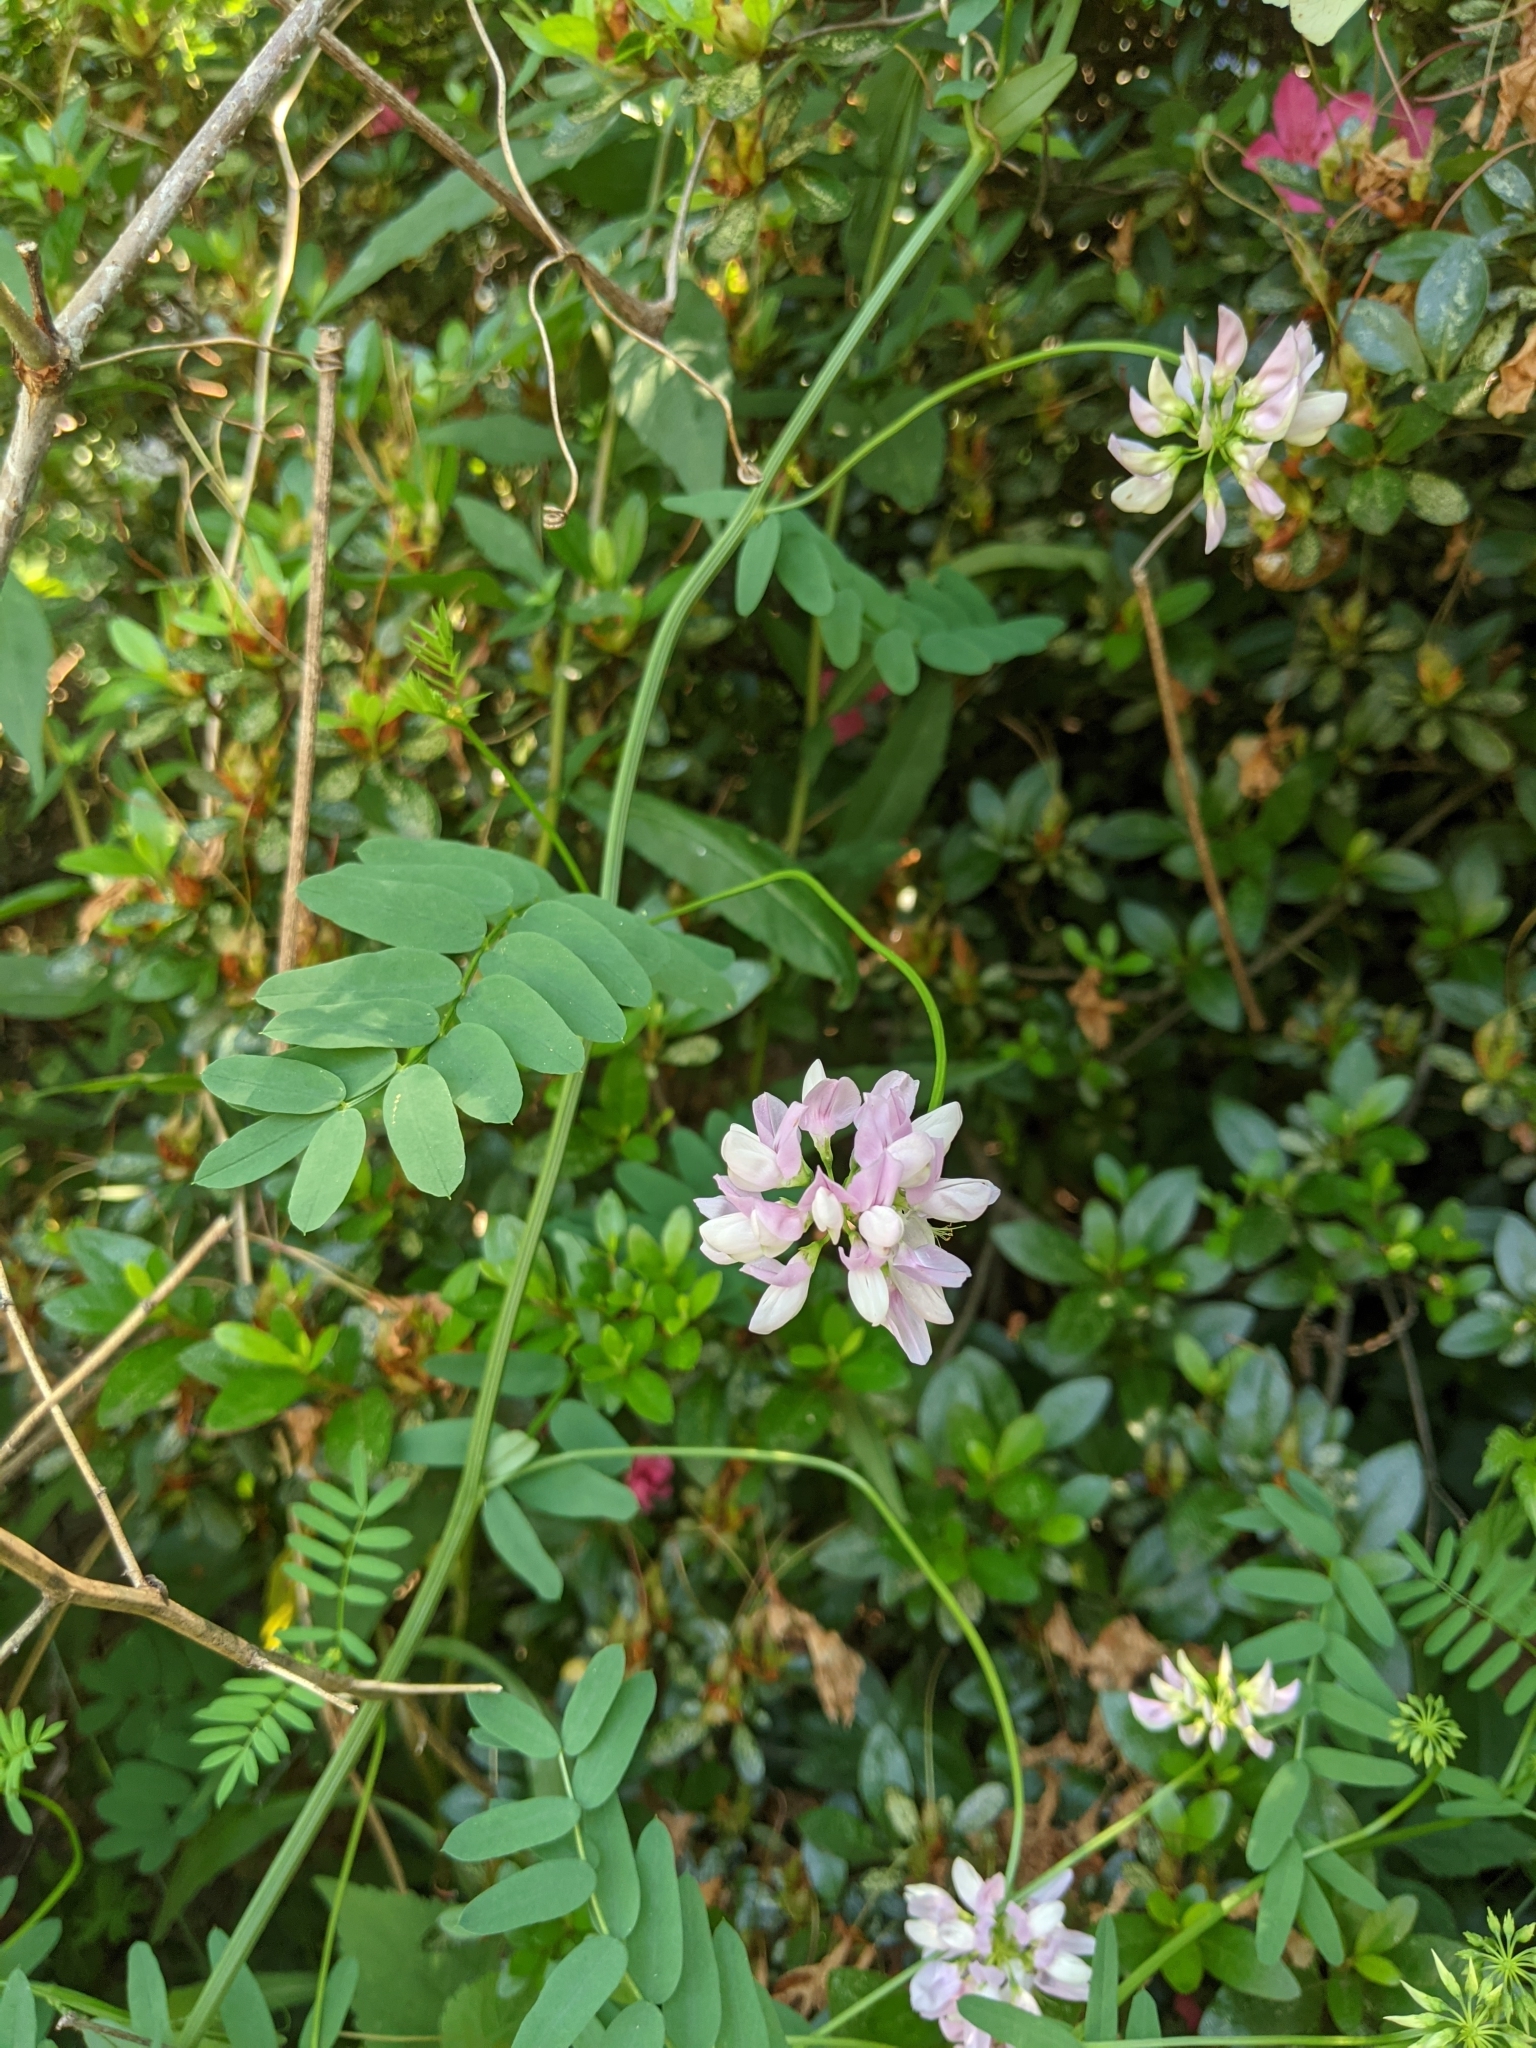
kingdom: Plantae
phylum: Tracheophyta
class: Magnoliopsida
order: Fabales
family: Fabaceae
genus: Coronilla
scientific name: Coronilla varia
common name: Crownvetch
